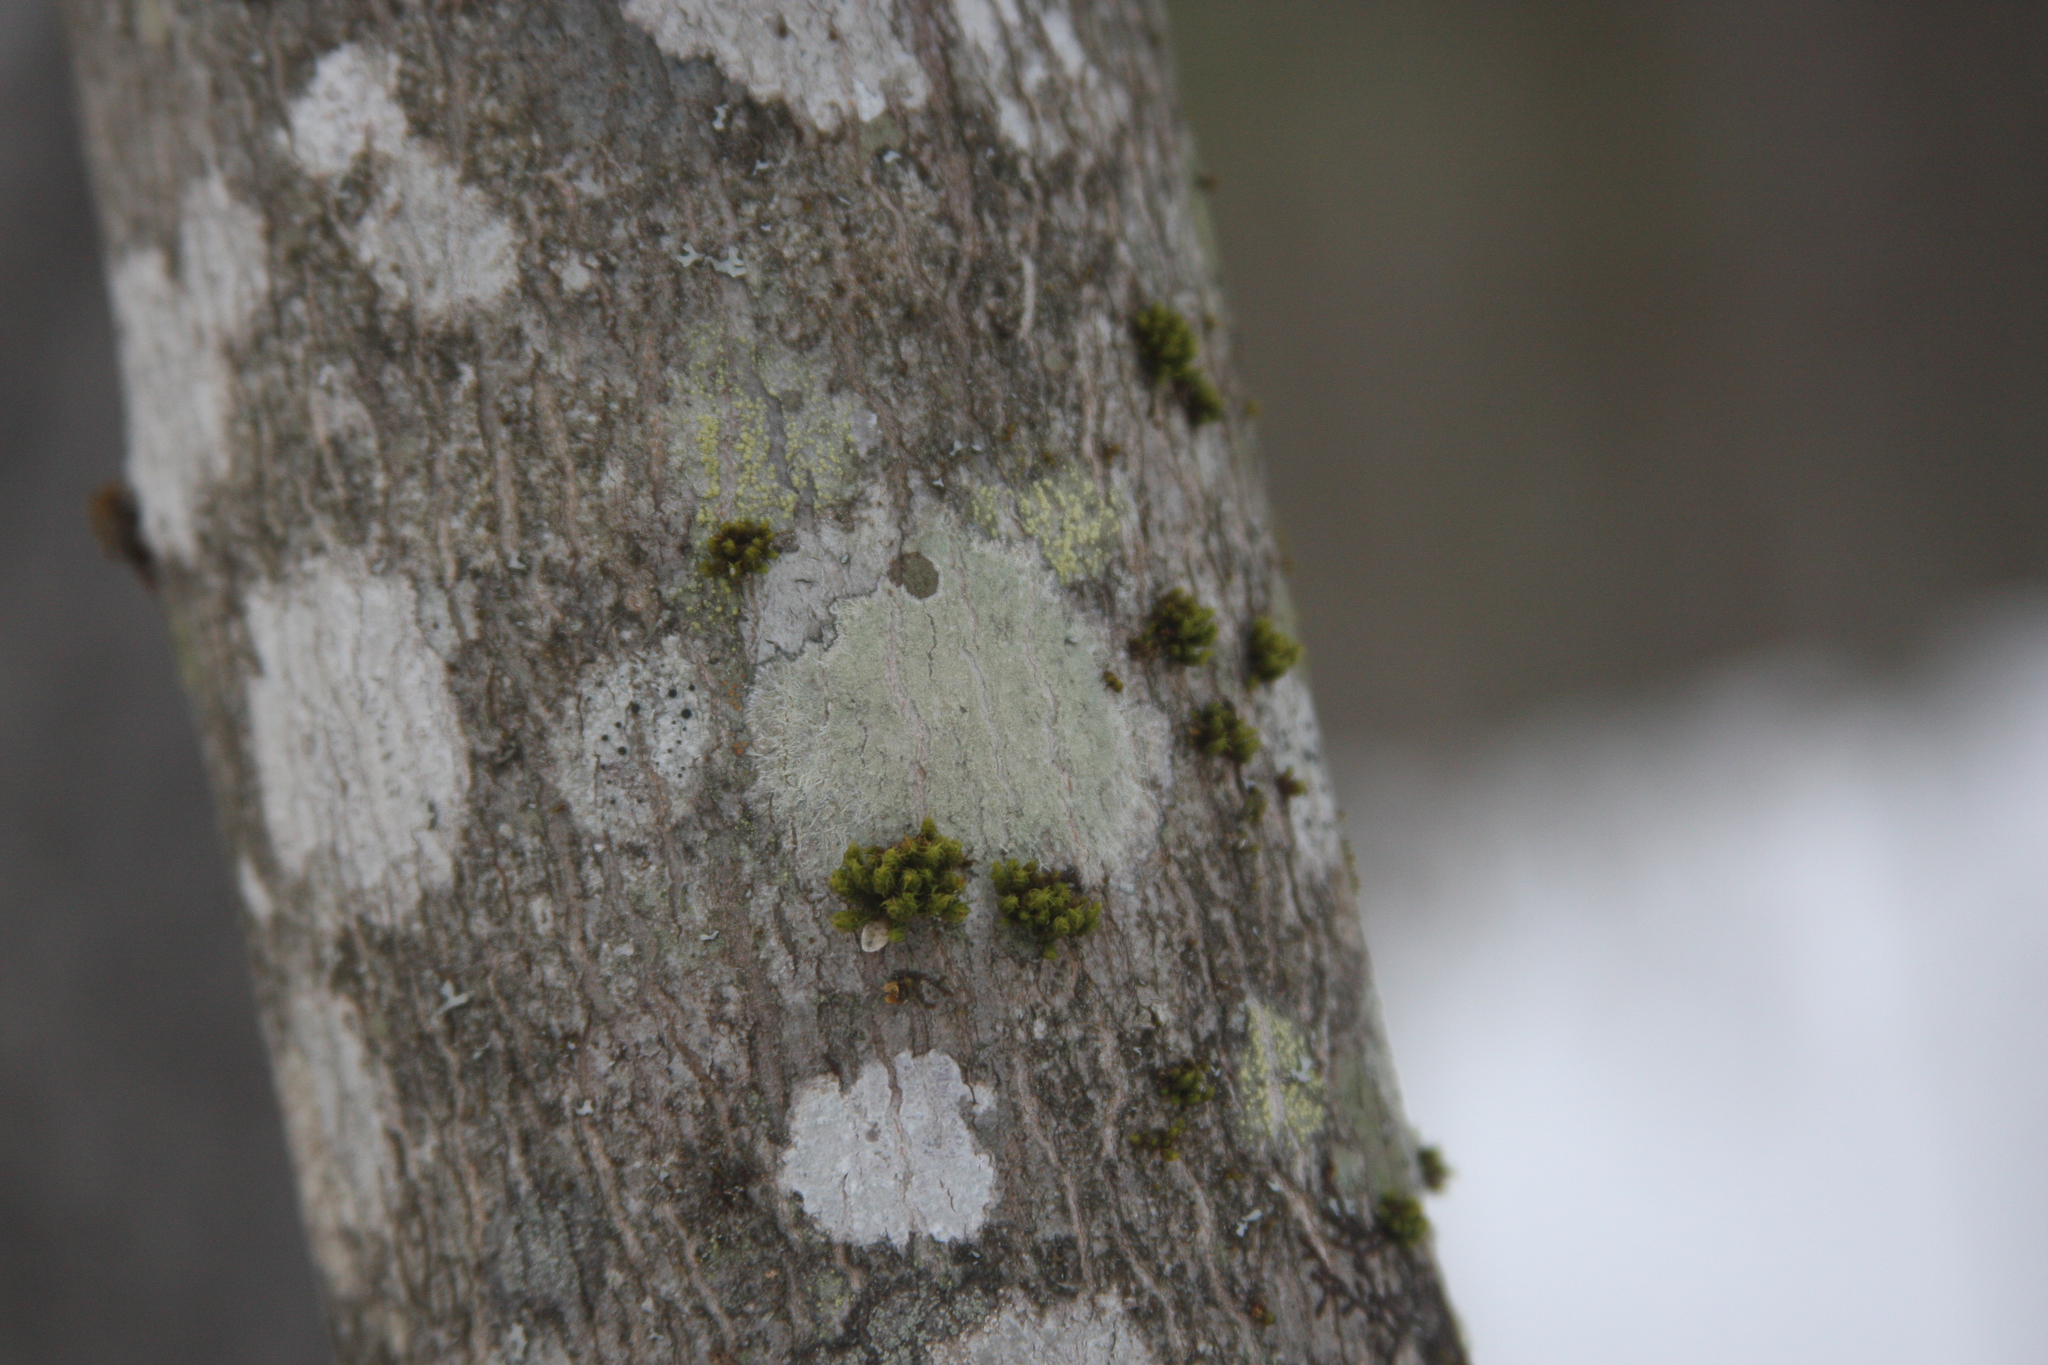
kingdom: Plantae
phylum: Bryophyta
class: Bryopsida
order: Orthotrichales
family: Orthotrichaceae
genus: Ulota
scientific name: Ulota crispa
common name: Crisped pincushion moss
